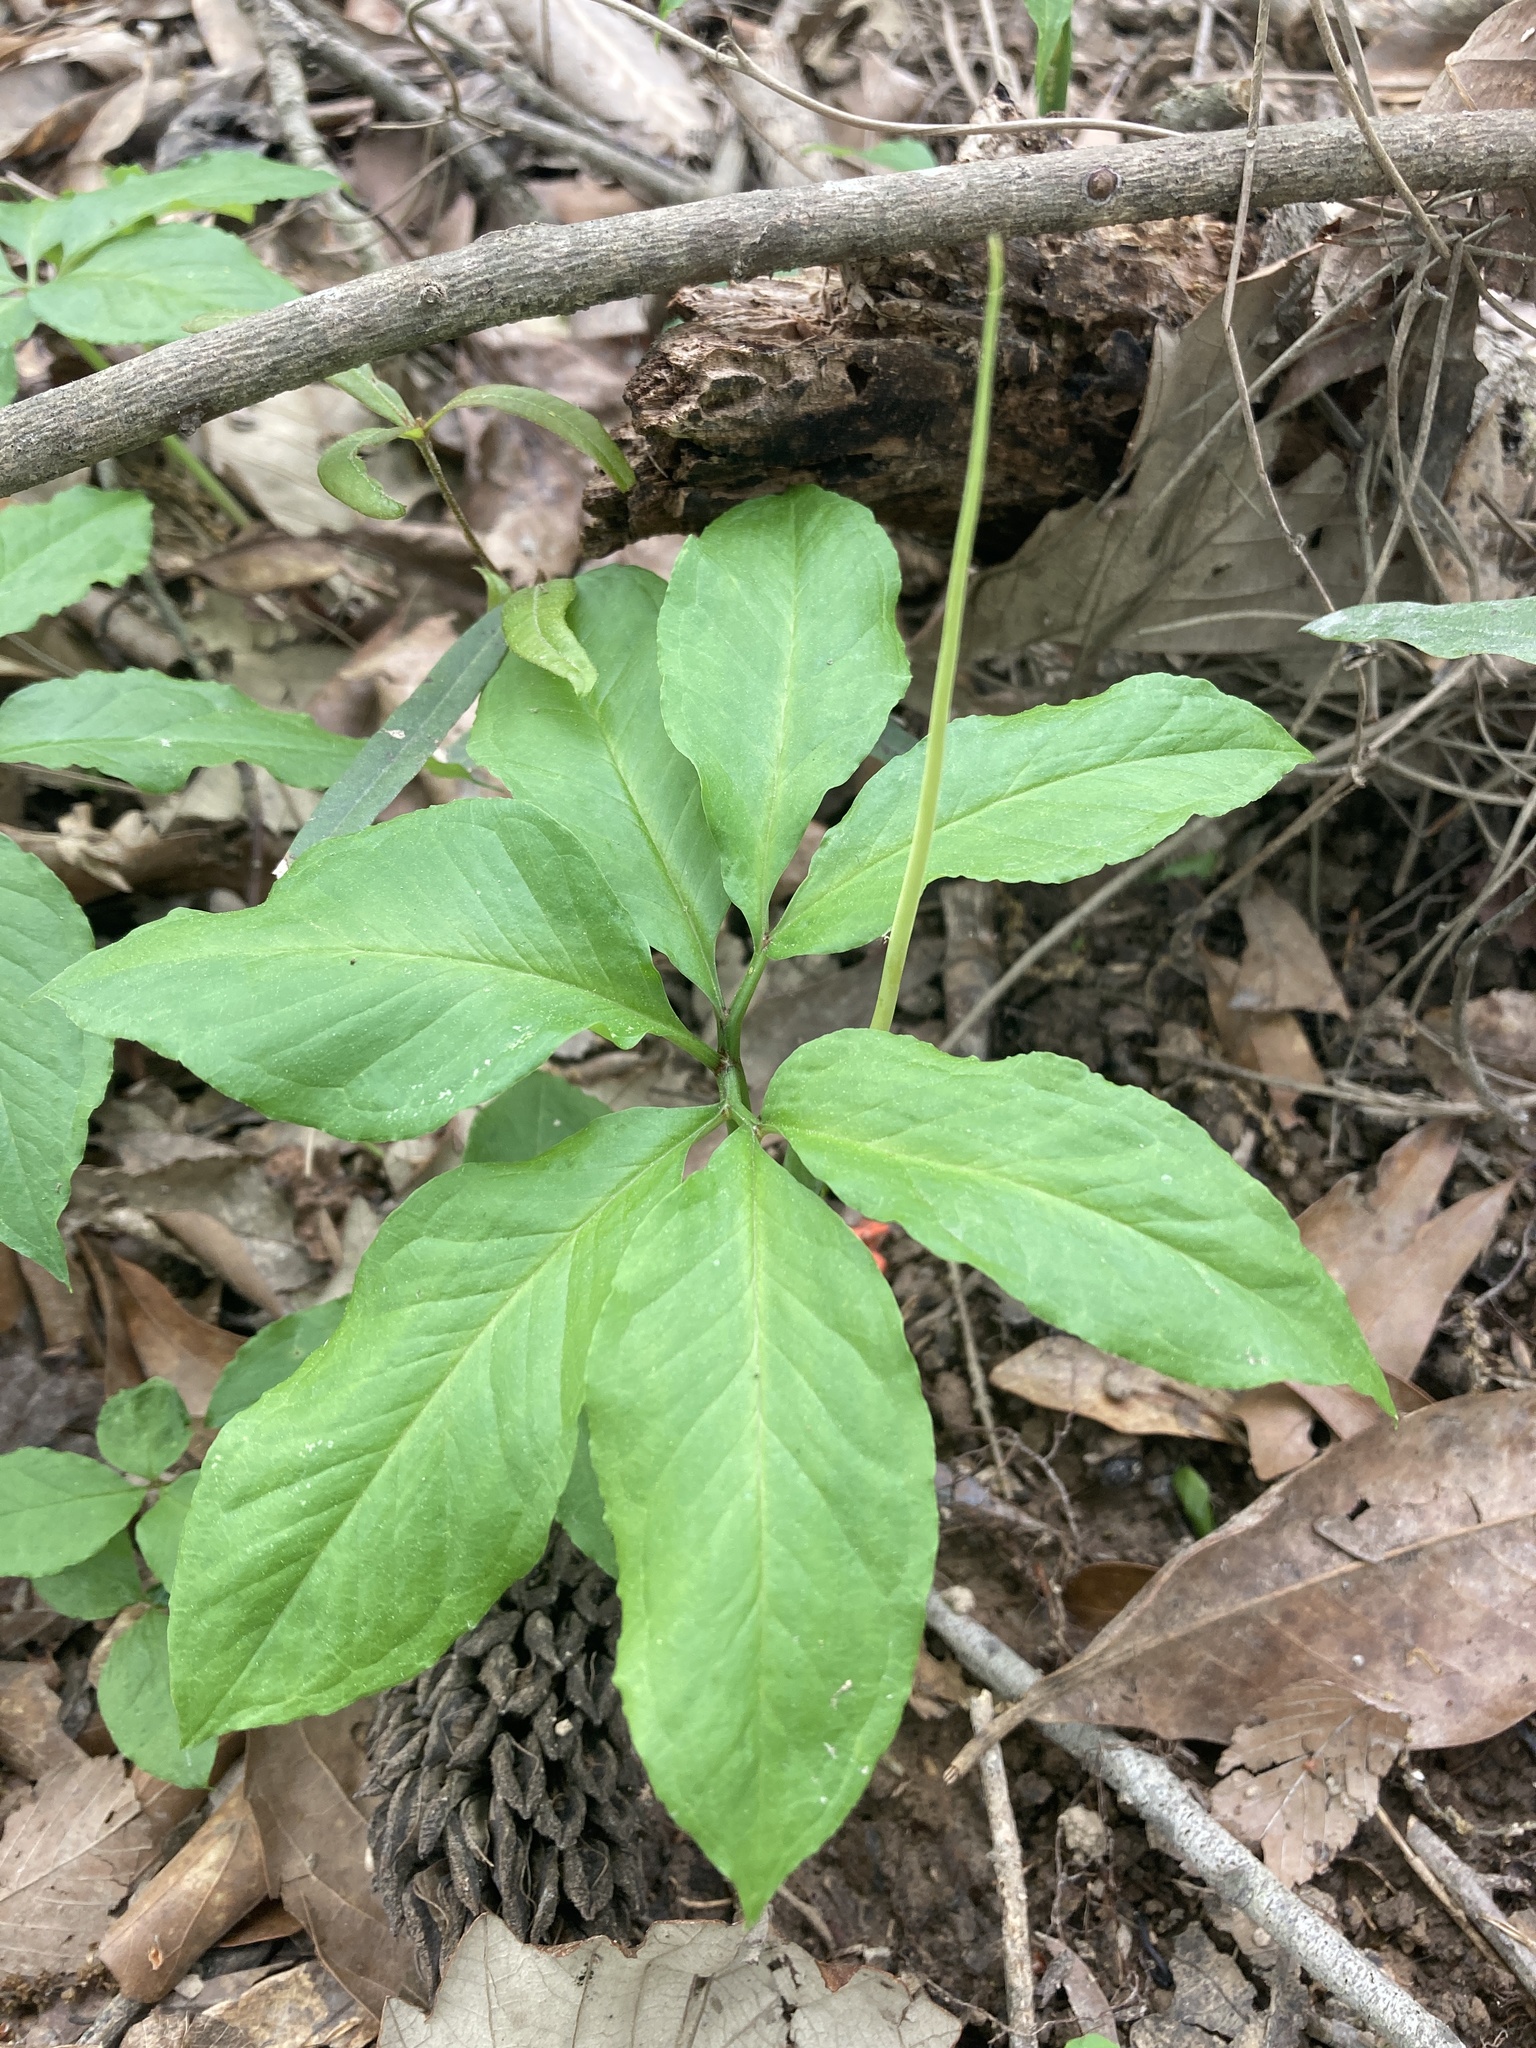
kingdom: Plantae
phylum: Tracheophyta
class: Liliopsida
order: Alismatales
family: Araceae
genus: Arisaema
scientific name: Arisaema dracontium
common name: Dragon-arum
